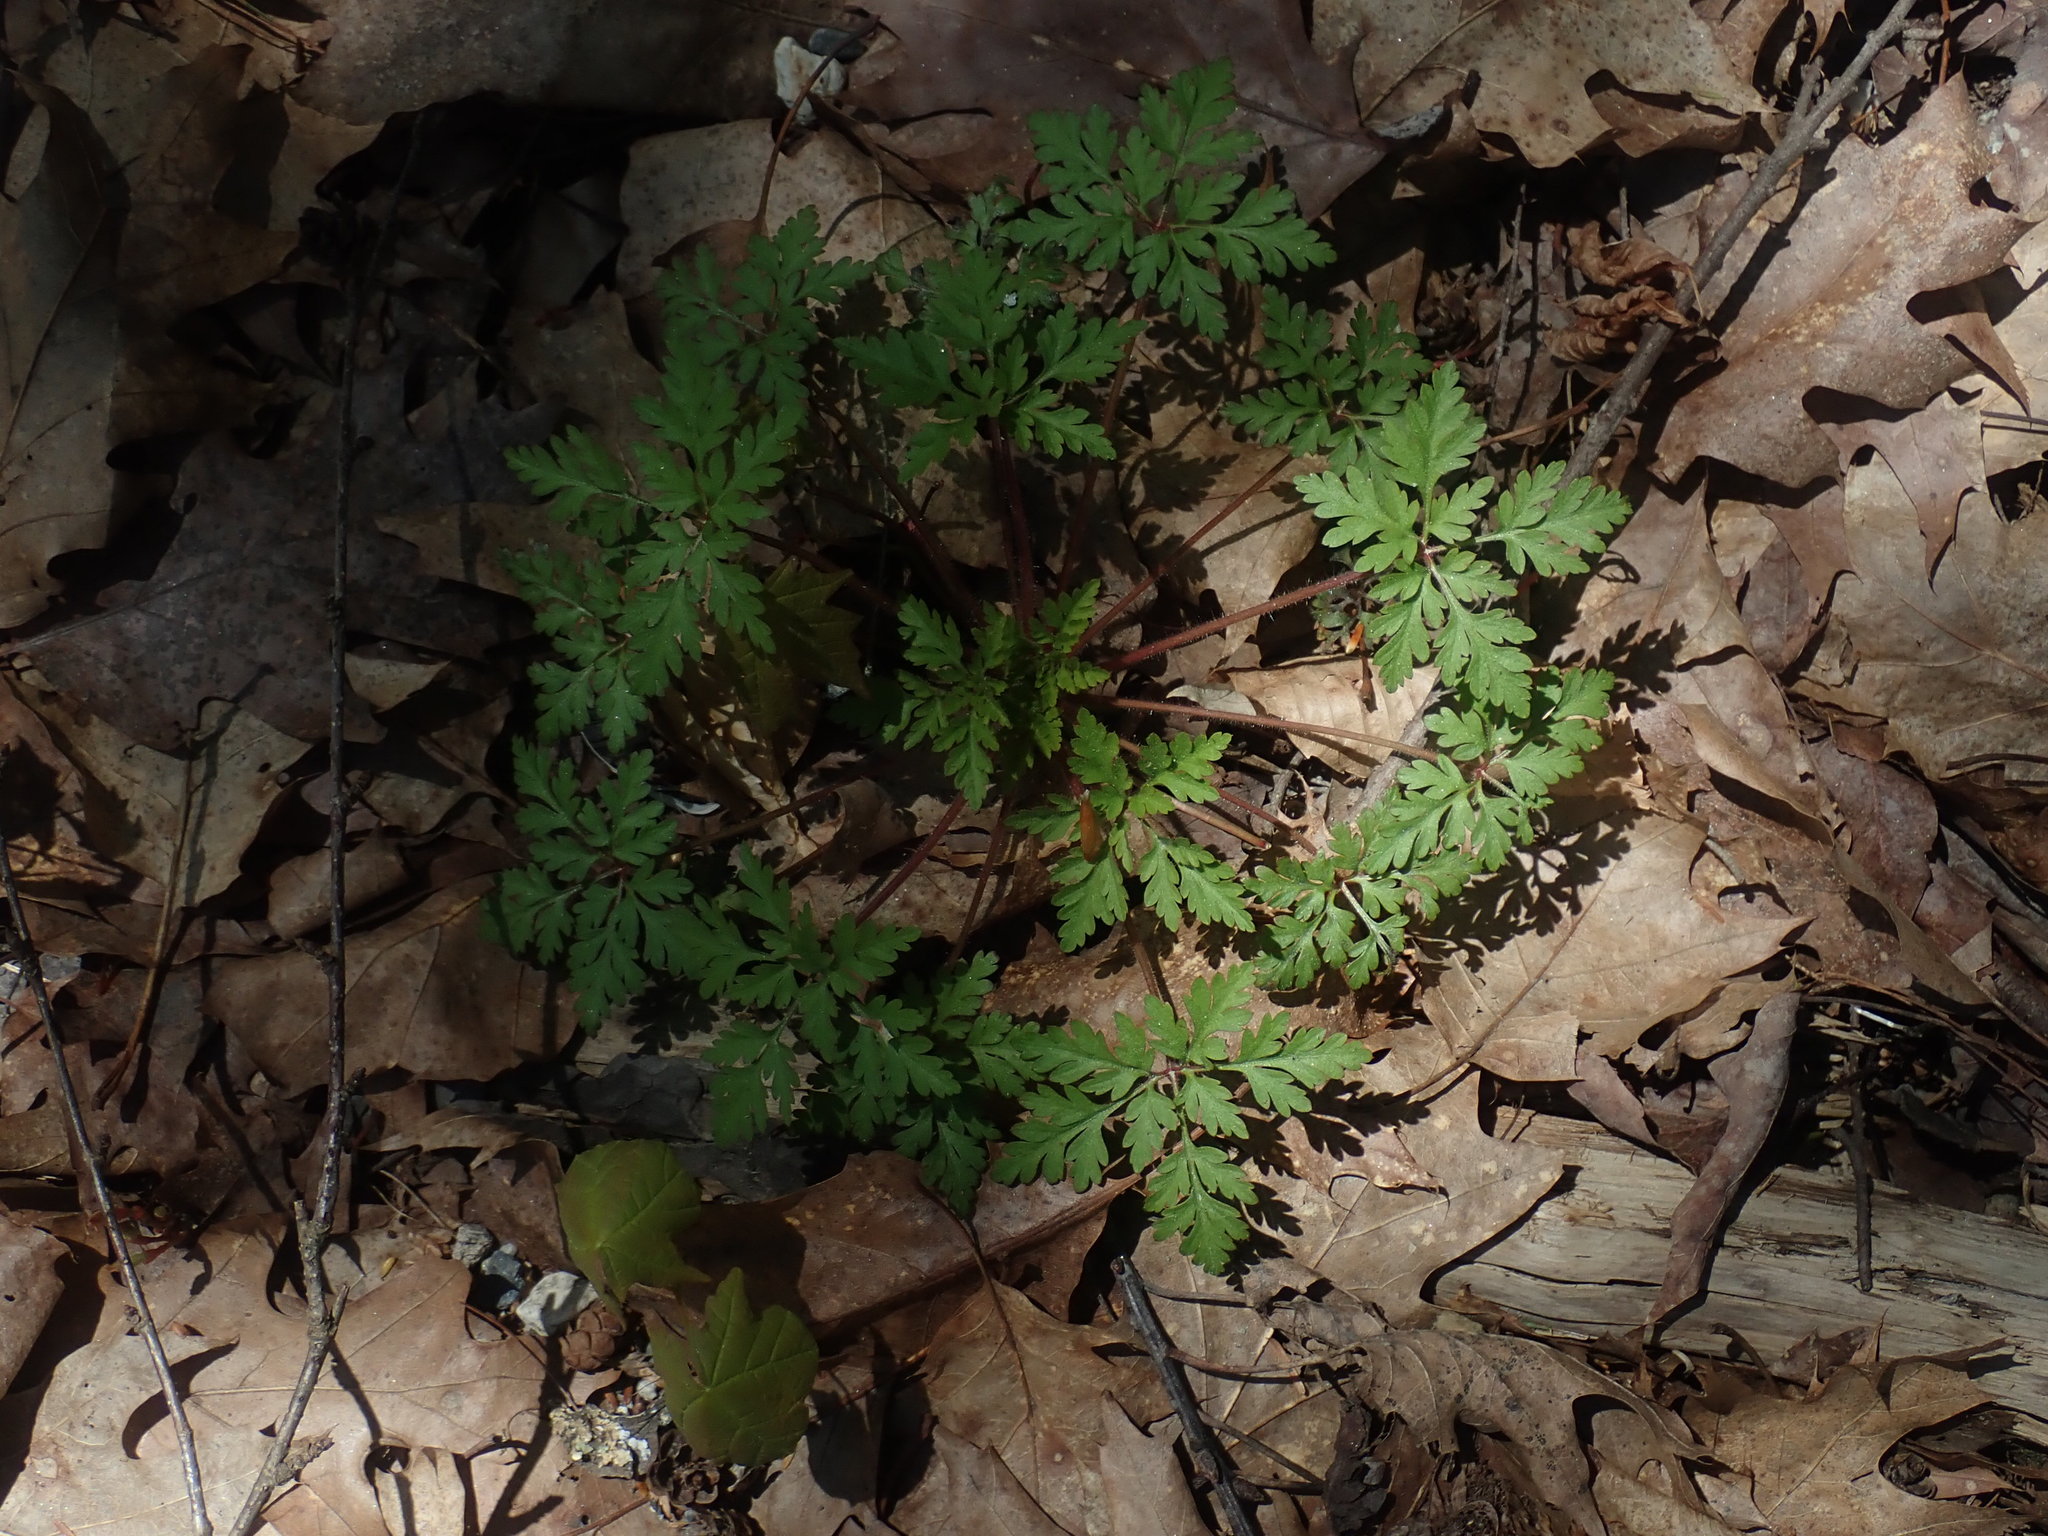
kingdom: Plantae
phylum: Tracheophyta
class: Magnoliopsida
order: Geraniales
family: Geraniaceae
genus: Geranium
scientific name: Geranium robertianum
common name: Herb-robert
